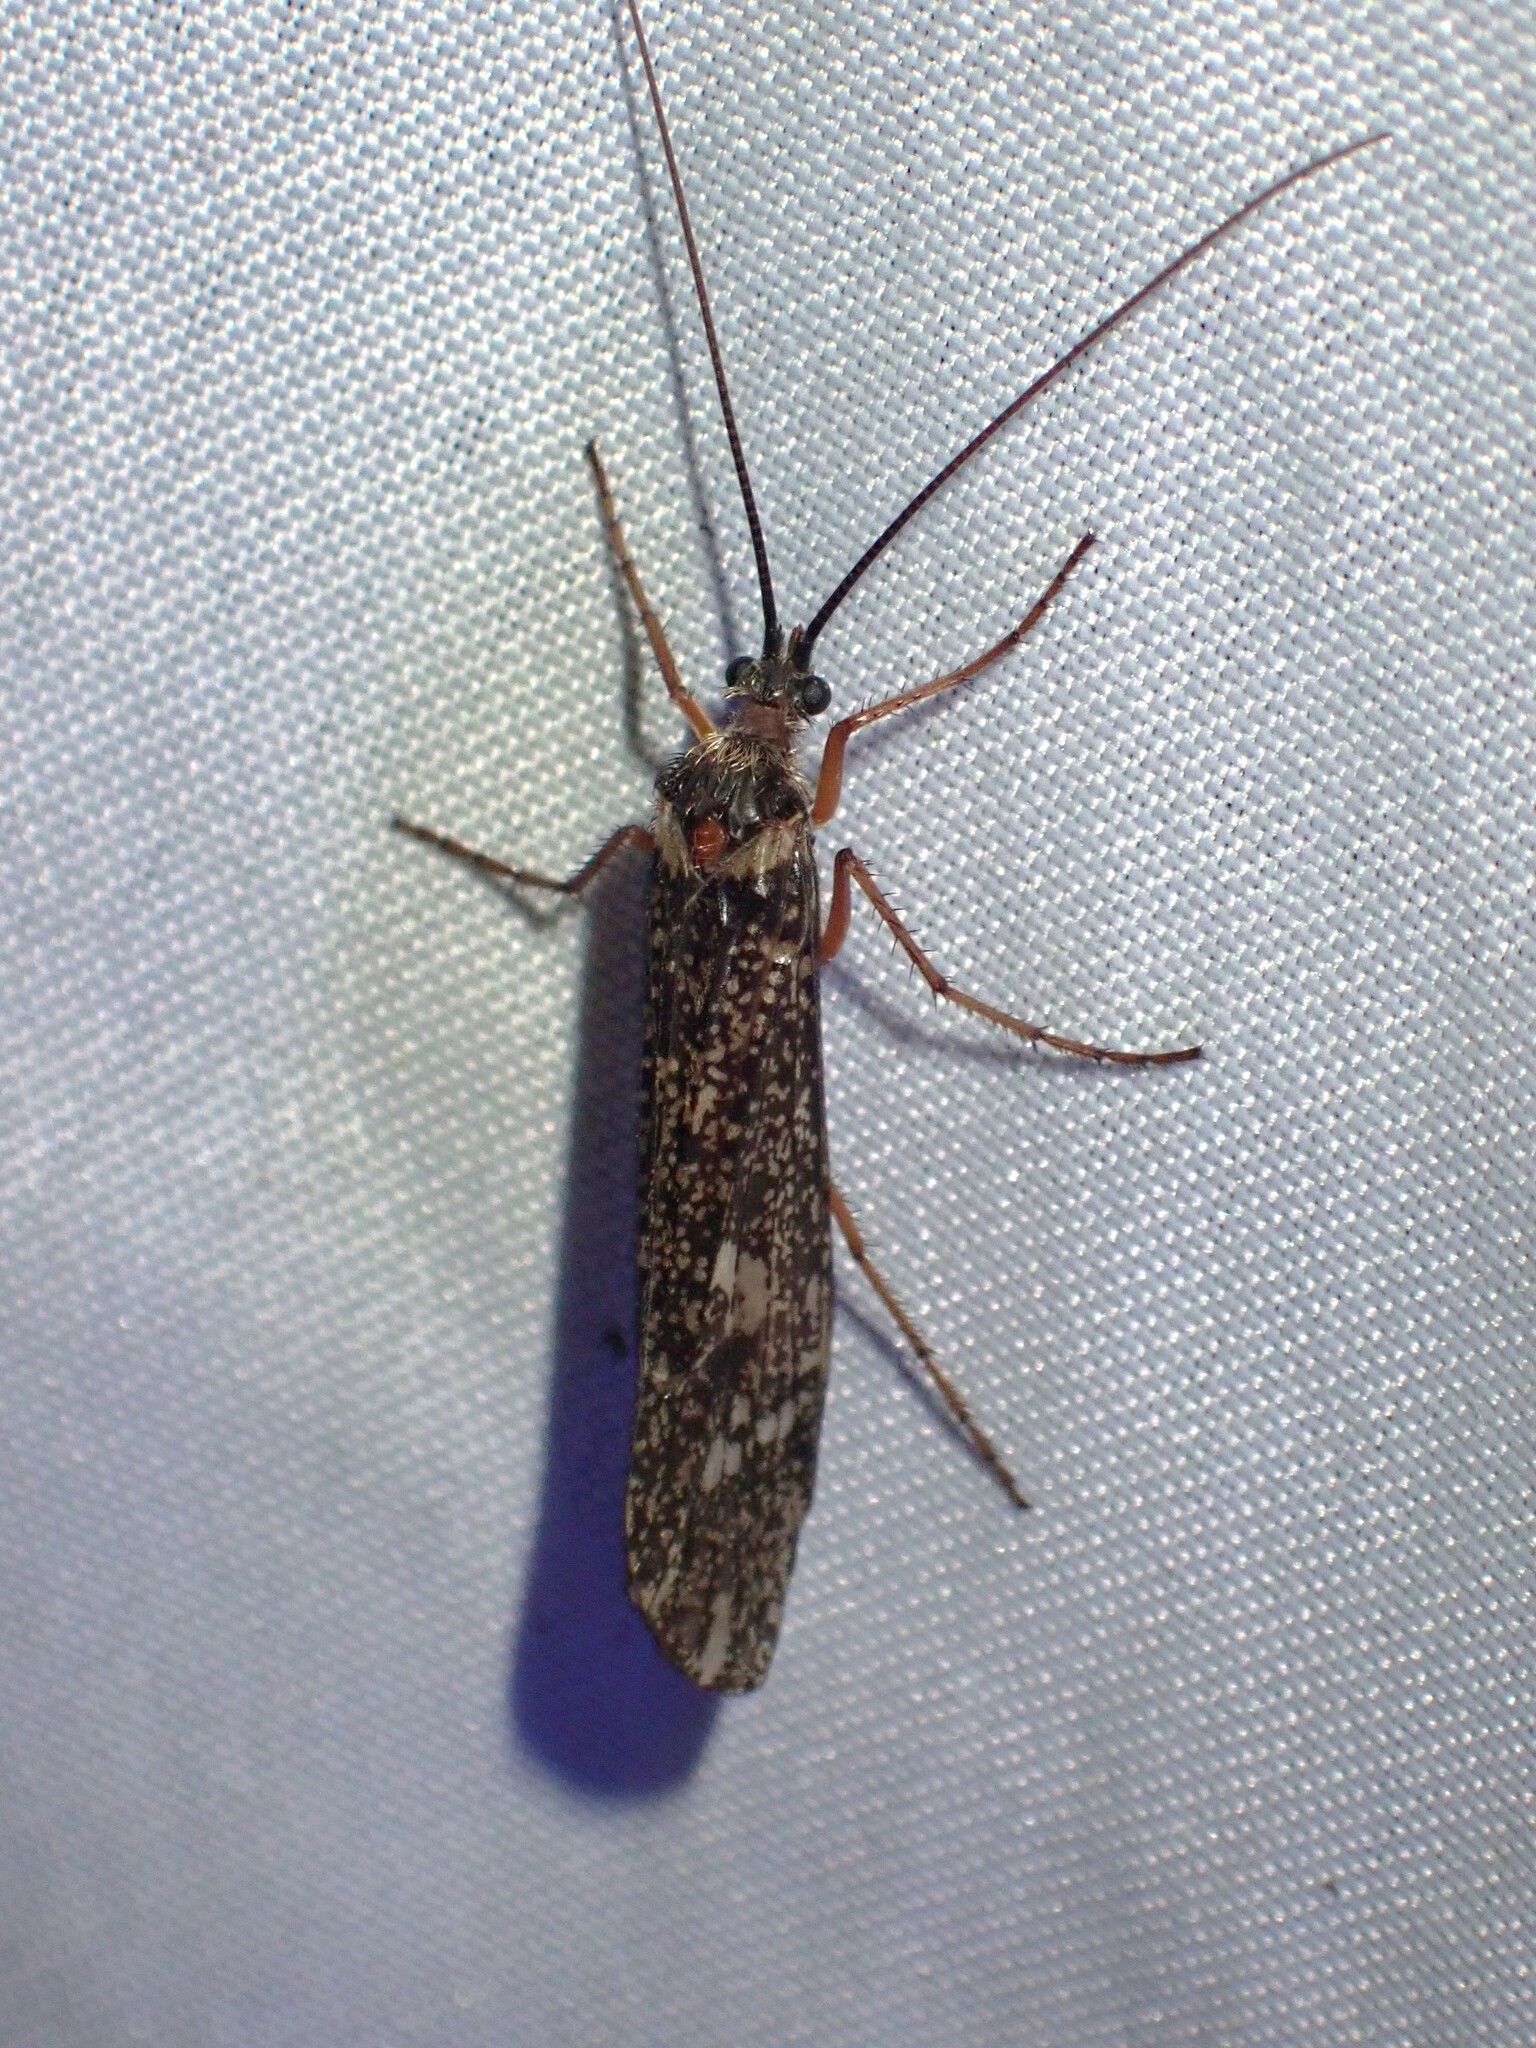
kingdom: Animalia
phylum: Arthropoda
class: Insecta
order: Trichoptera
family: Limnephilidae
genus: Clistoronia
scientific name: Clistoronia magnifica
